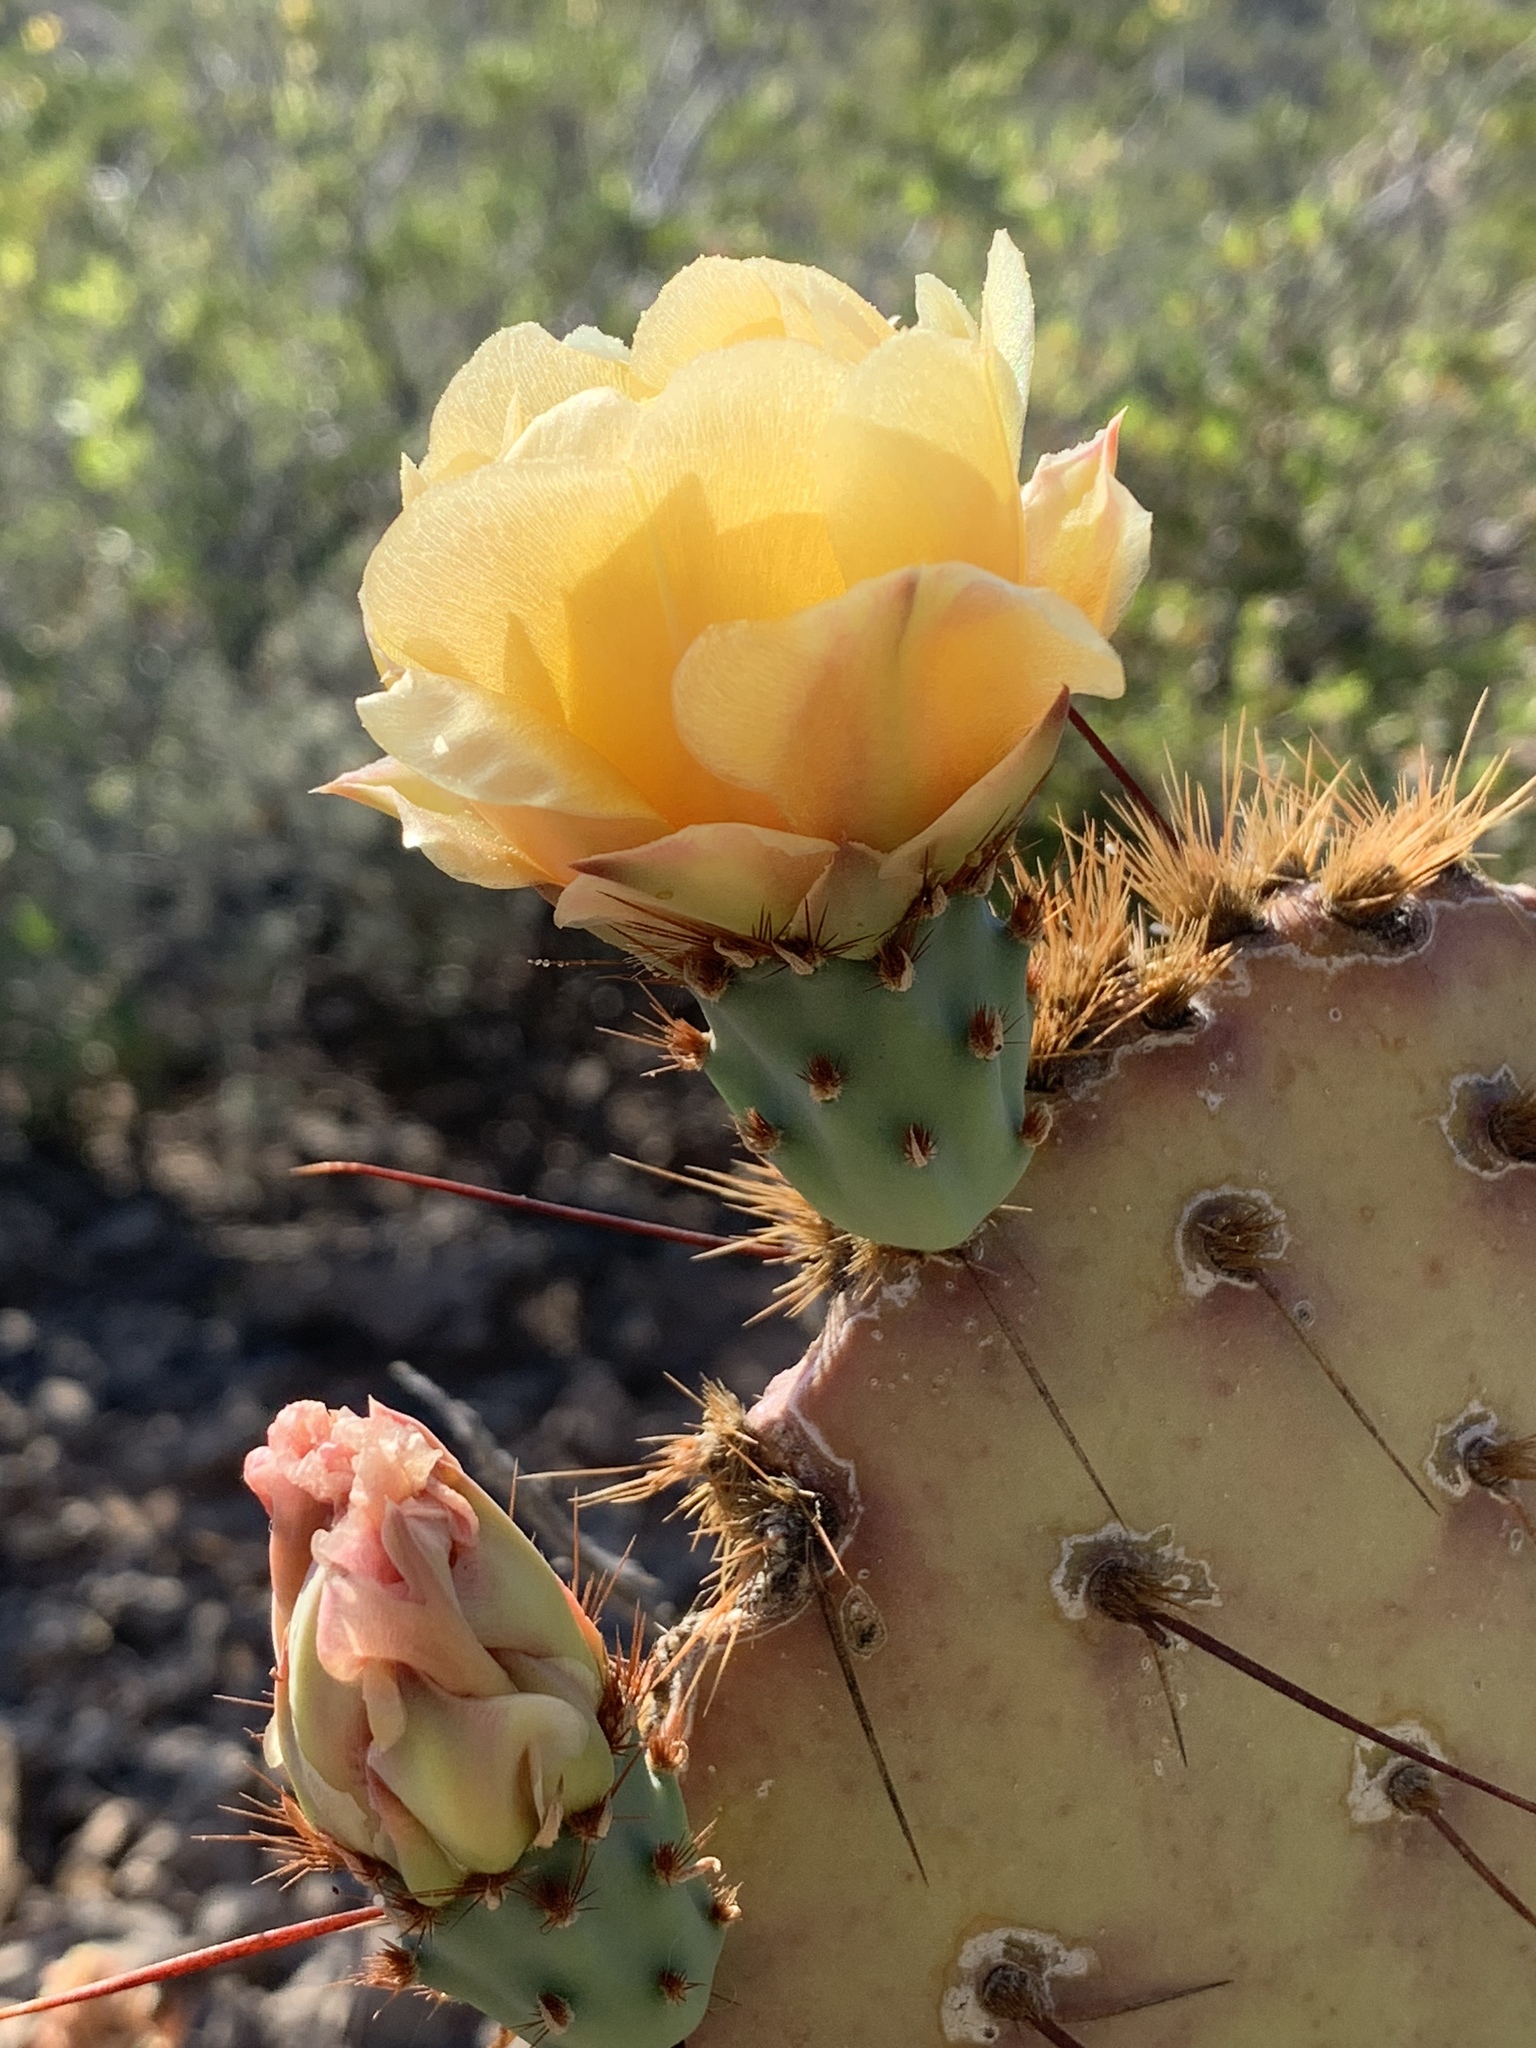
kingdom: Plantae
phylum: Tracheophyta
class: Magnoliopsida
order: Caryophyllales
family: Cactaceae
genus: Opuntia
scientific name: Opuntia engelmannii
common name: Cactus-apple
